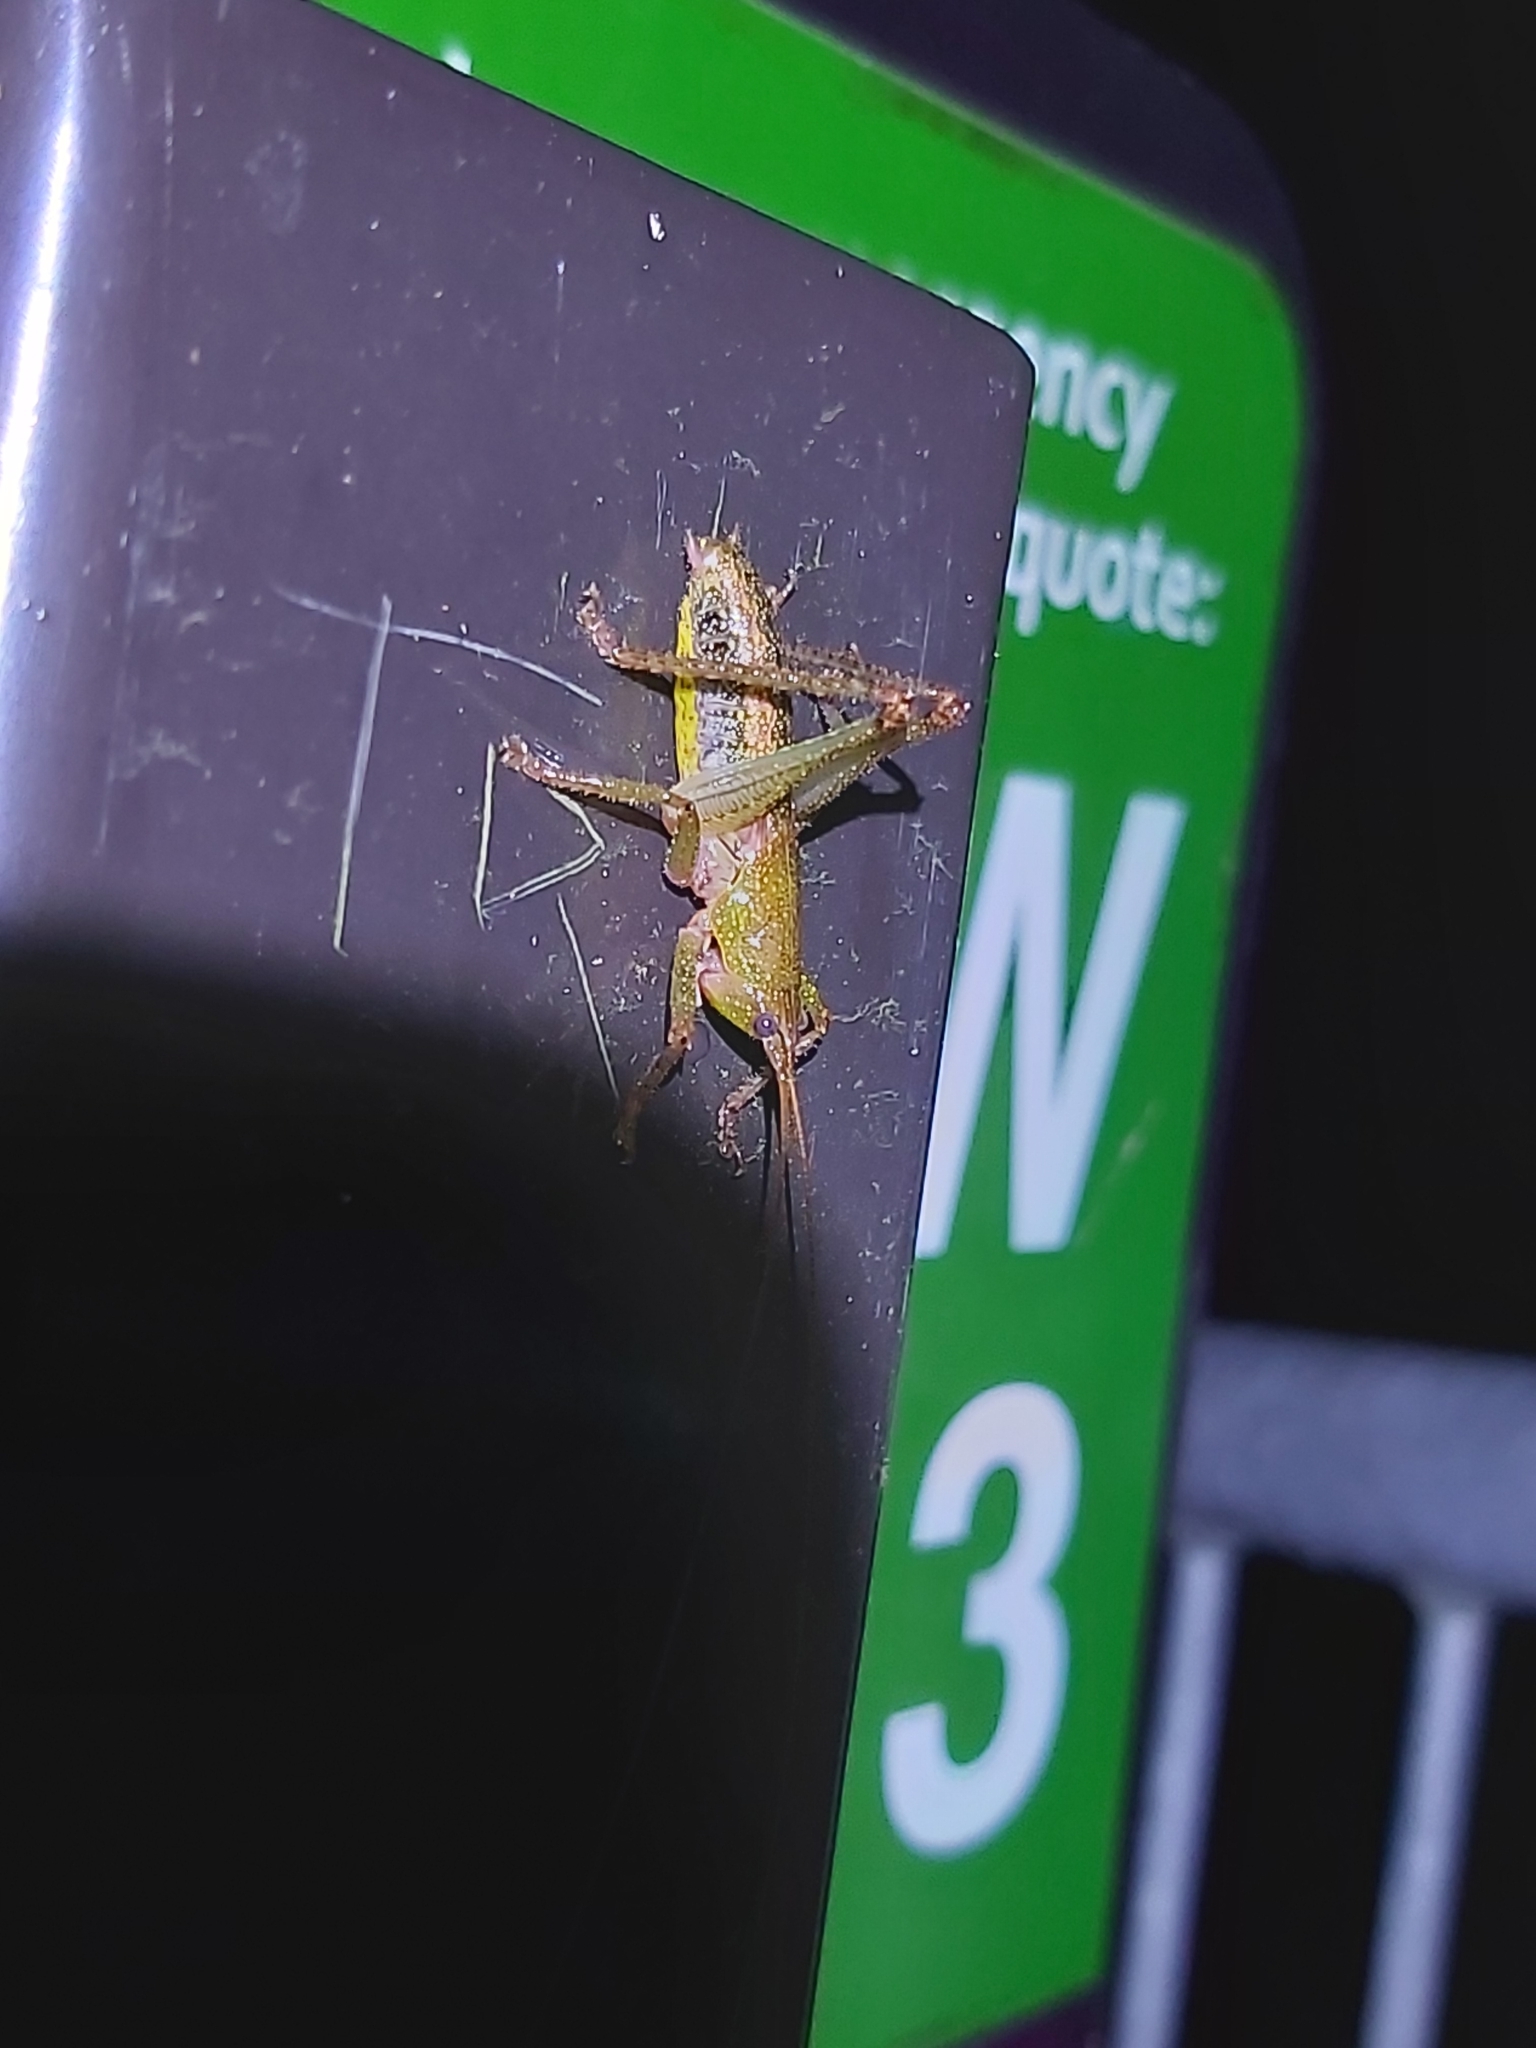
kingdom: Animalia
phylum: Arthropoda
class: Insecta
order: Orthoptera
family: Tettigoniidae
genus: Austrosalomona
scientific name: Austrosalomona destructor
